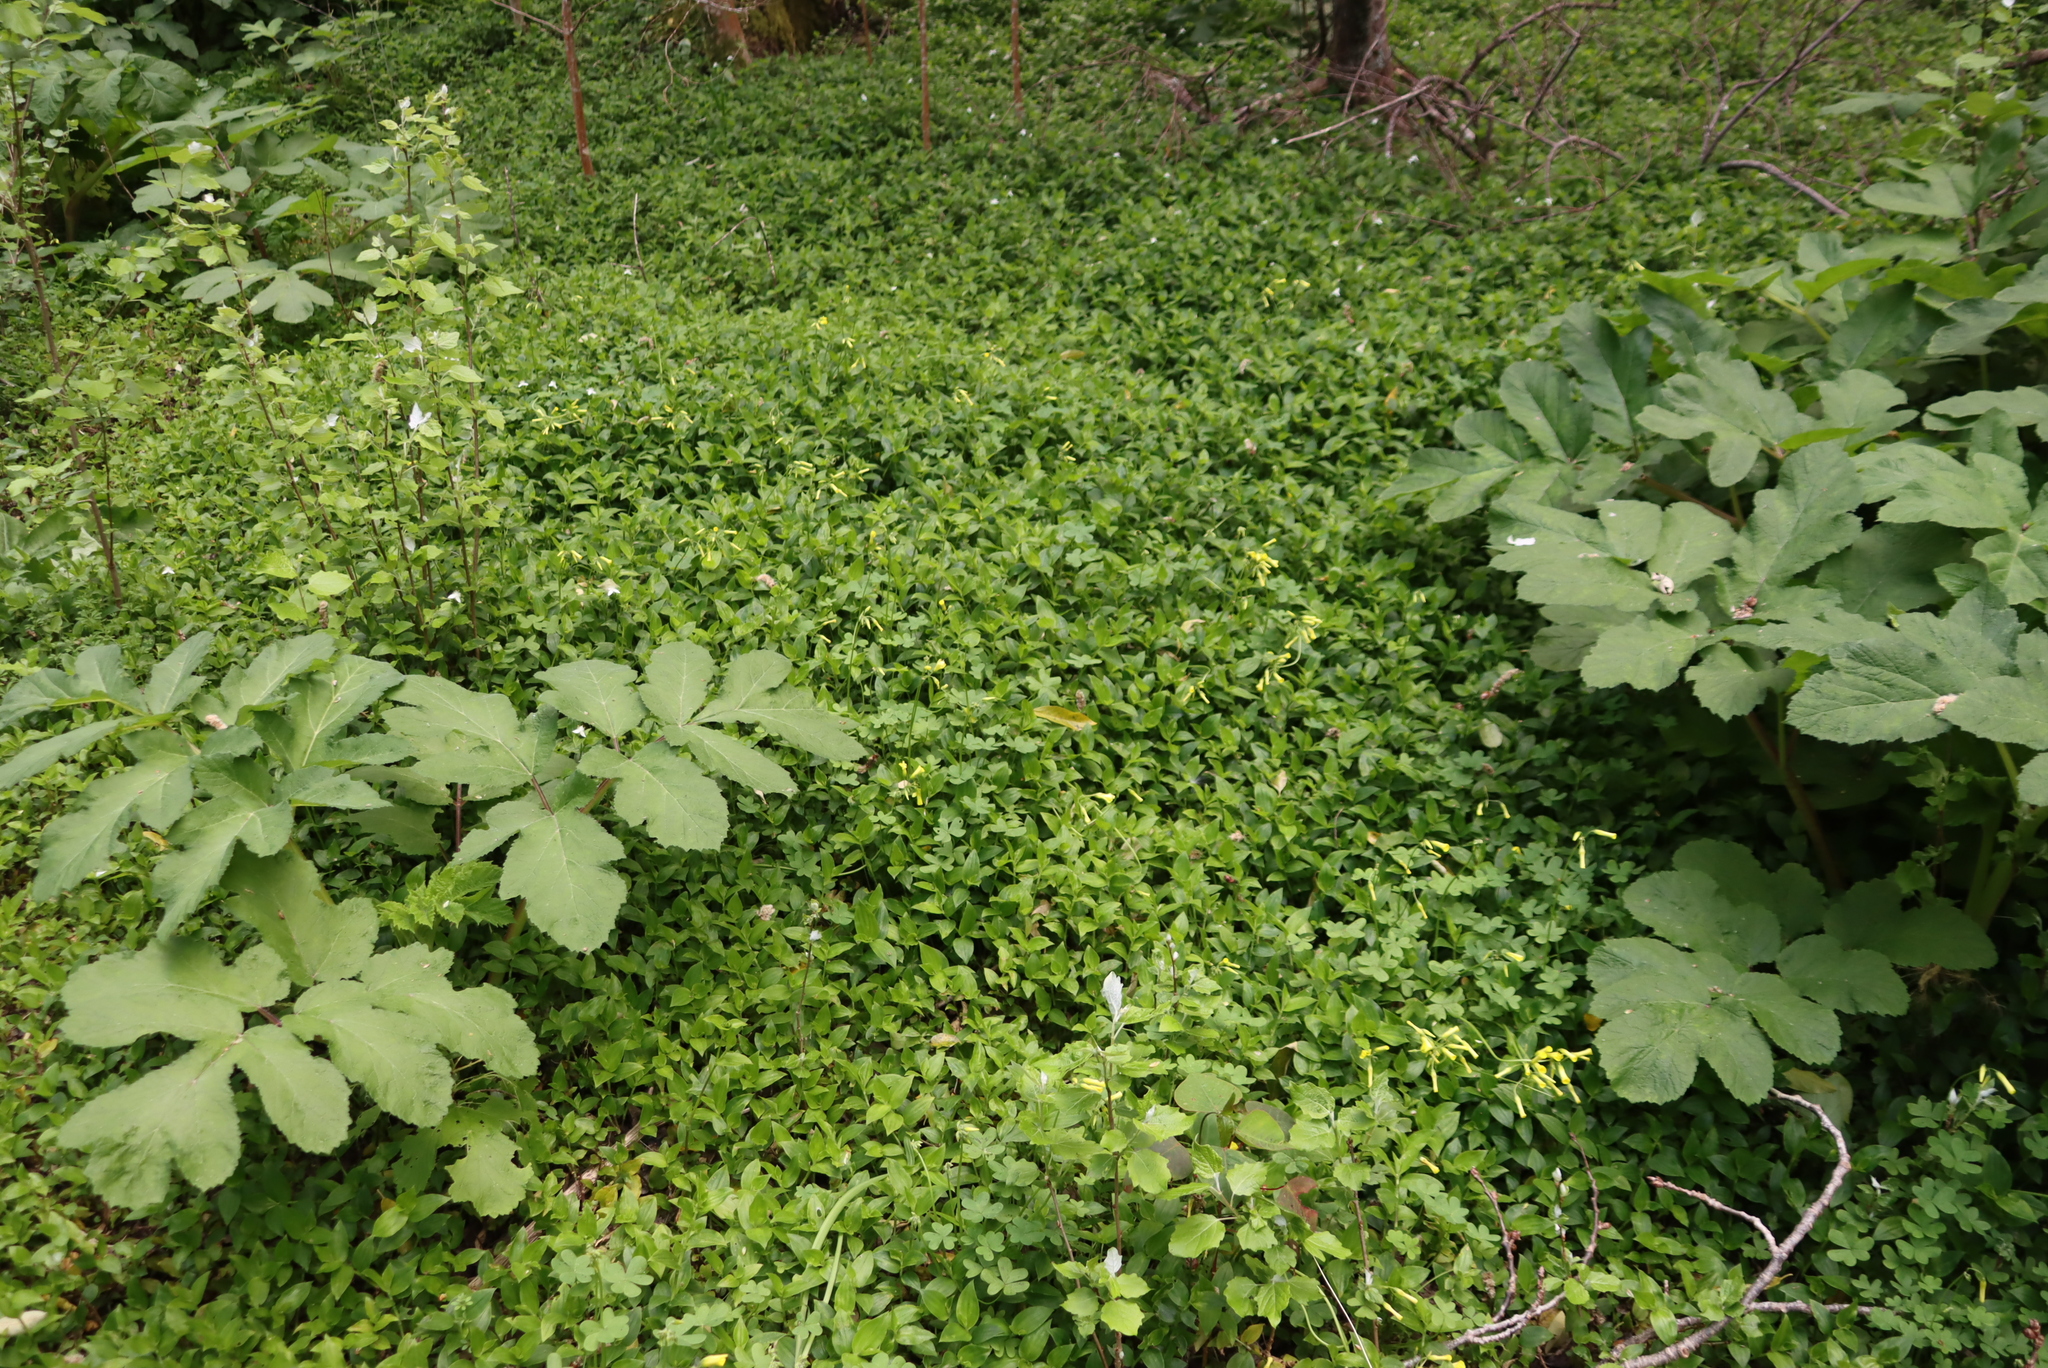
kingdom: Plantae
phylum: Tracheophyta
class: Liliopsida
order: Commelinales
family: Commelinaceae
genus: Tradescantia
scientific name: Tradescantia fluminensis
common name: Wandering-jew
